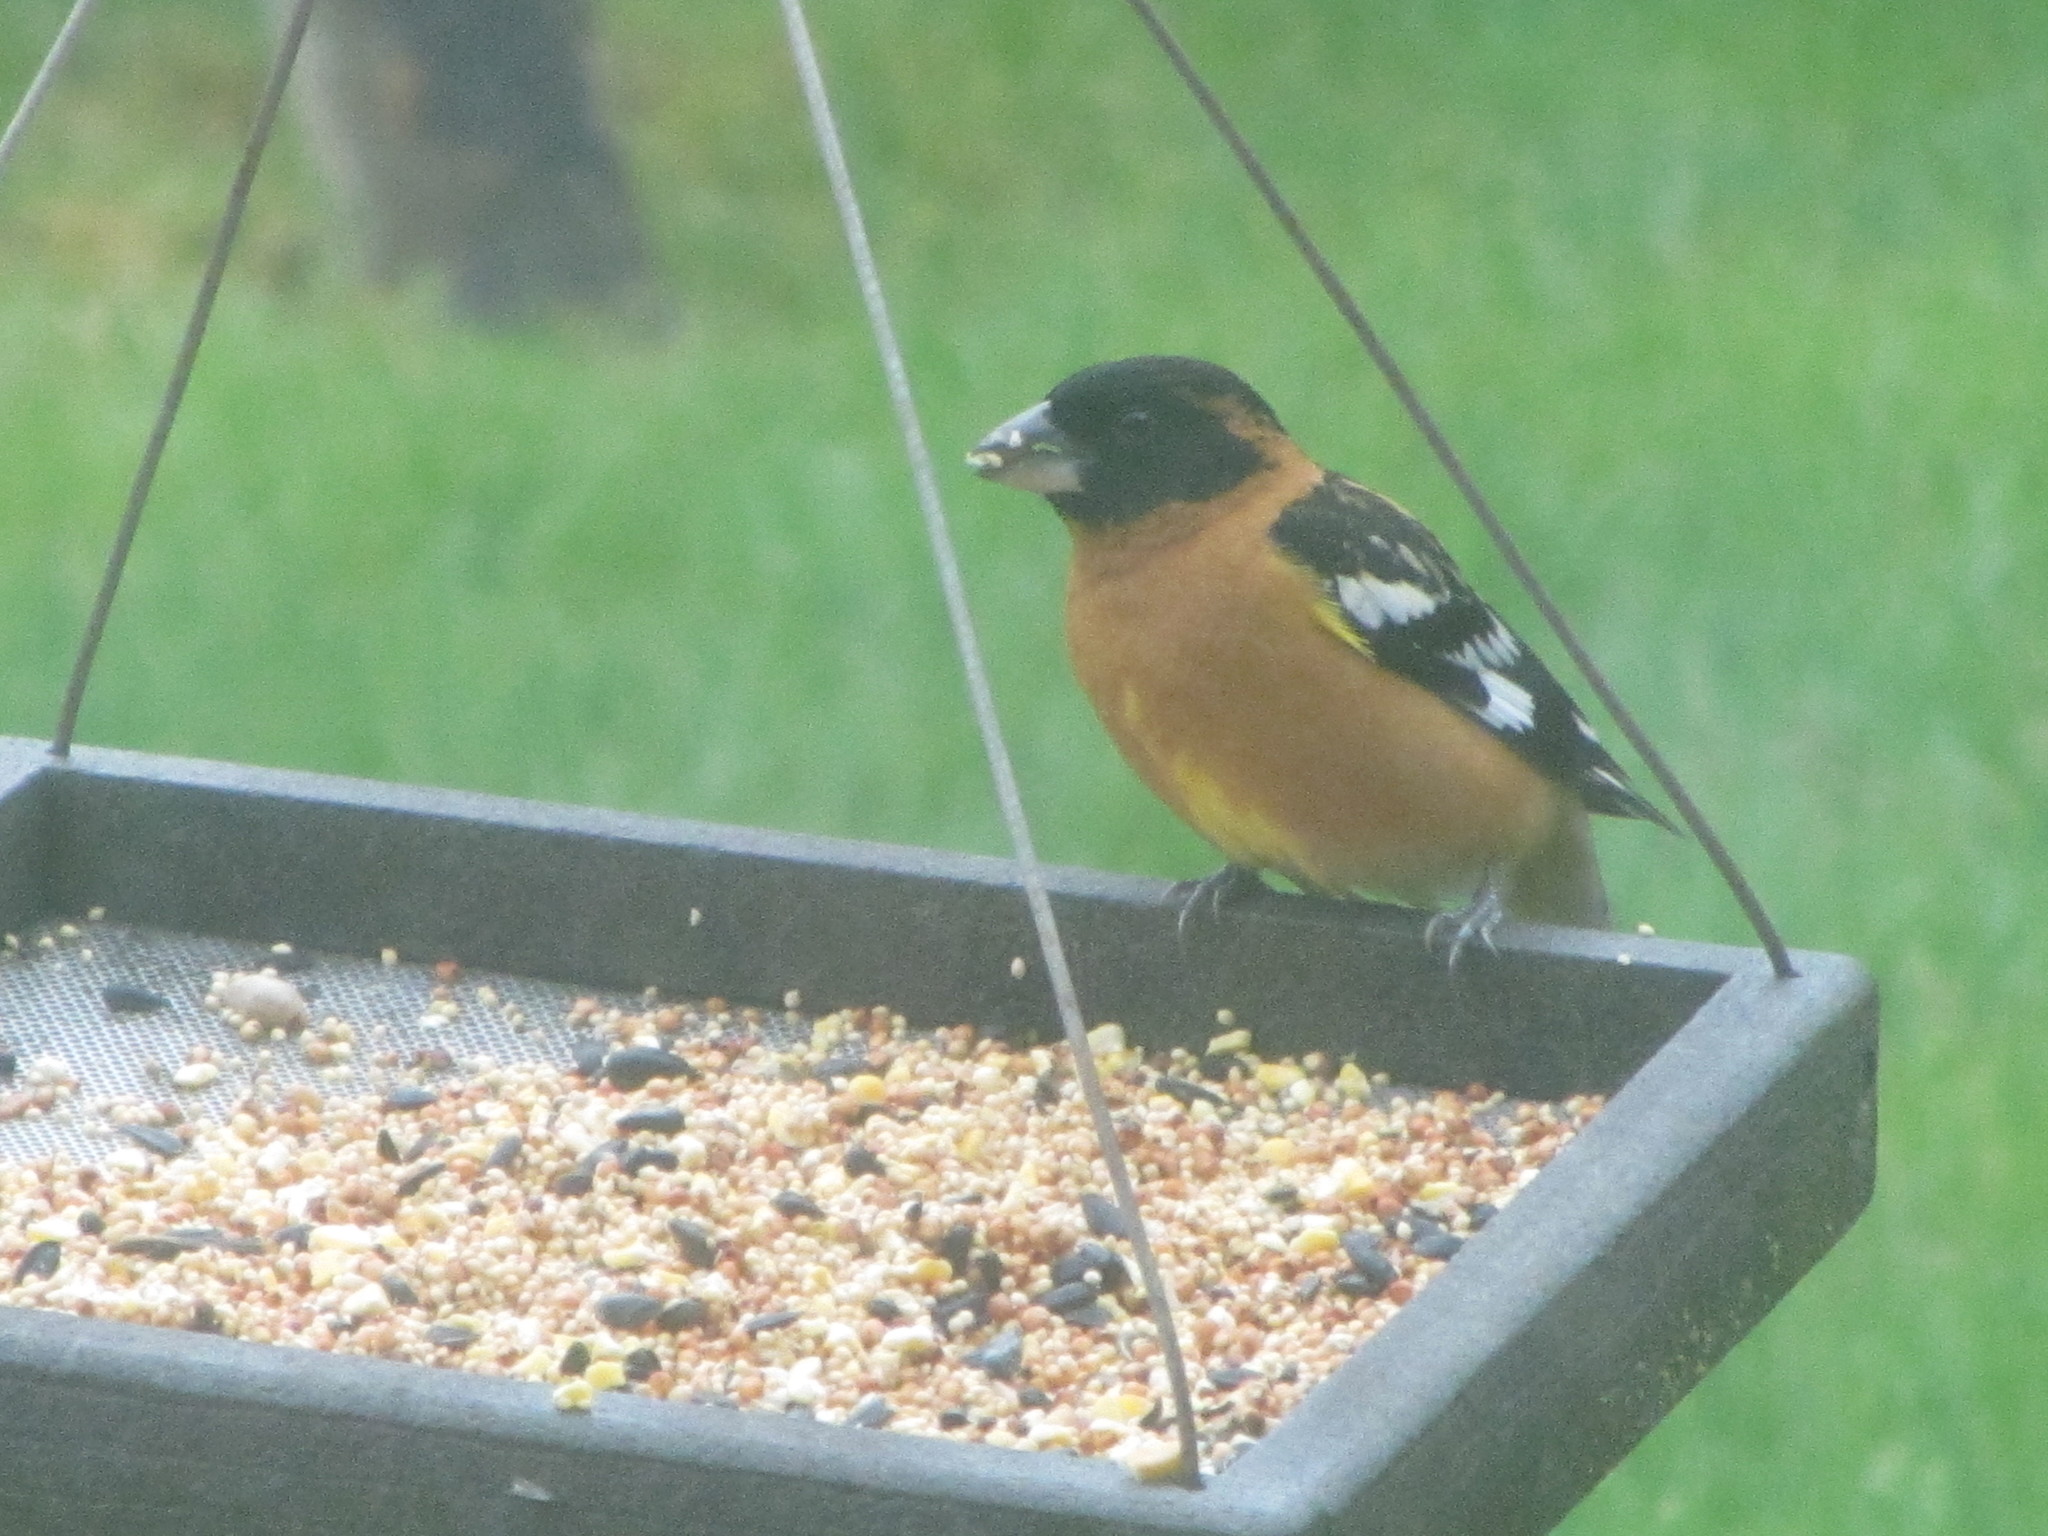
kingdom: Animalia
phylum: Chordata
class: Aves
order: Passeriformes
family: Cardinalidae
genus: Pheucticus
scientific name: Pheucticus melanocephalus
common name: Black-headed grosbeak
